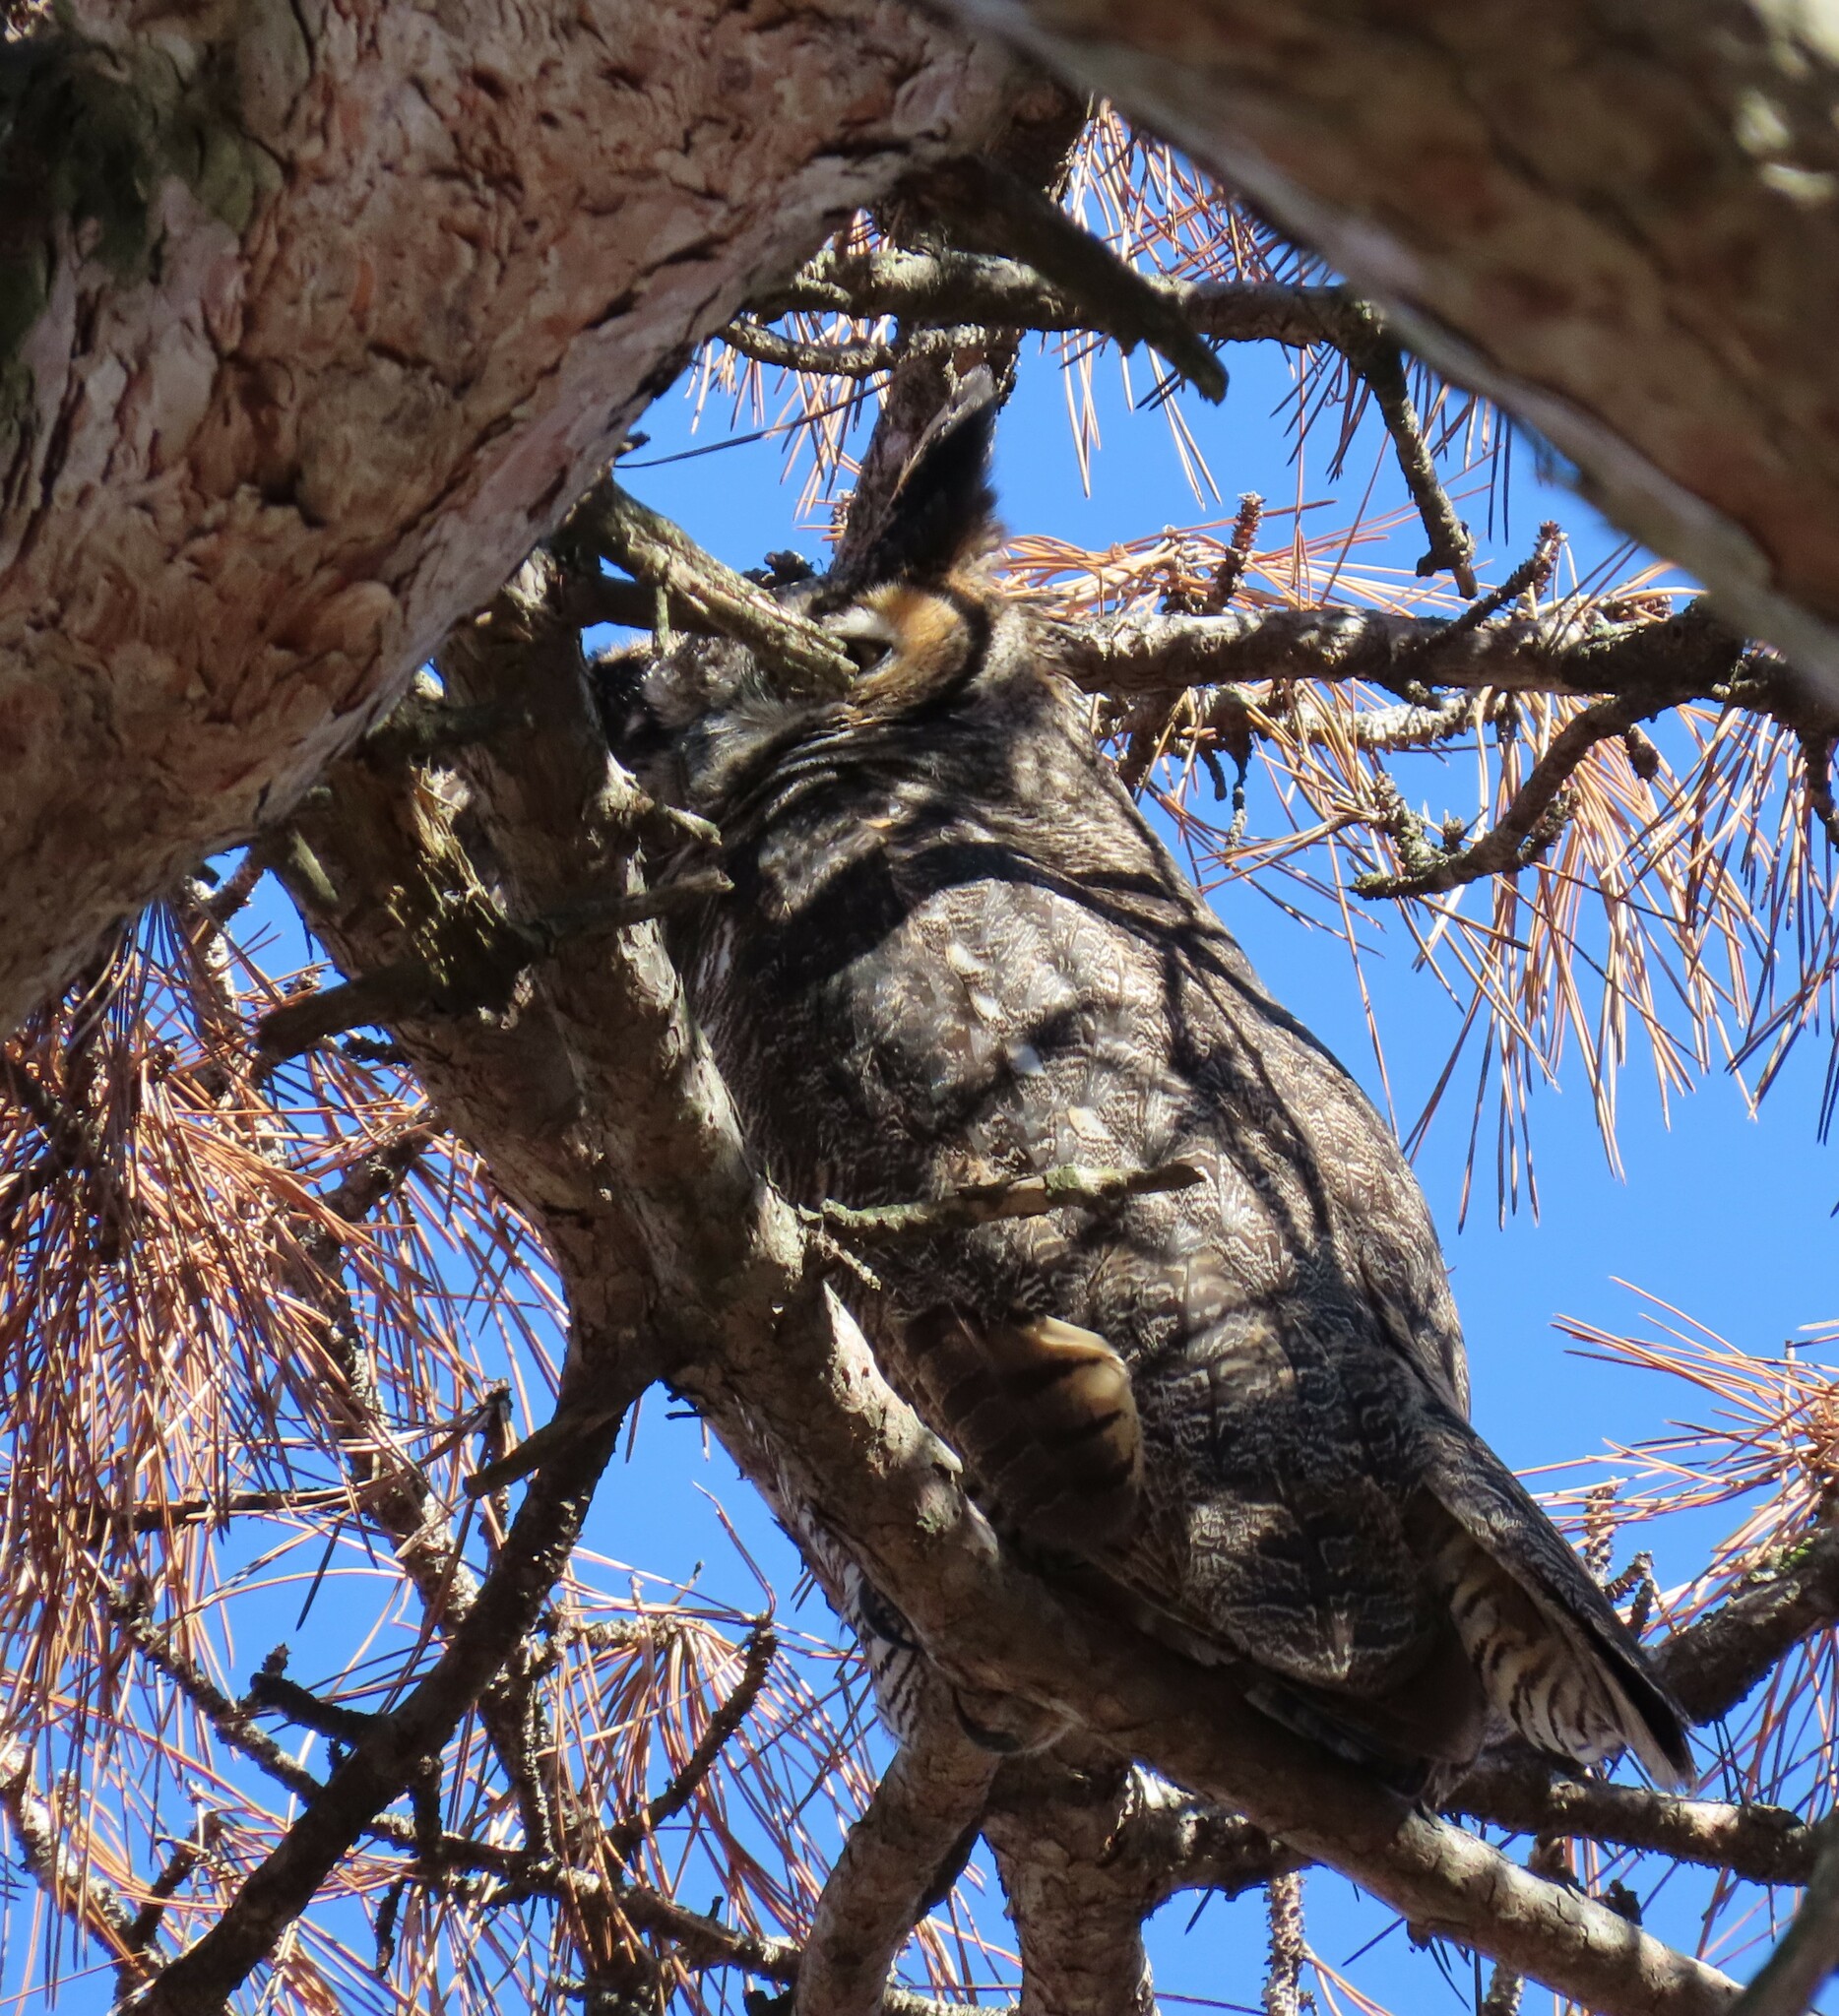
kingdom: Animalia
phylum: Chordata
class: Aves
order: Strigiformes
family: Strigidae
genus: Bubo
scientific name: Bubo virginianus
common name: Great horned owl
